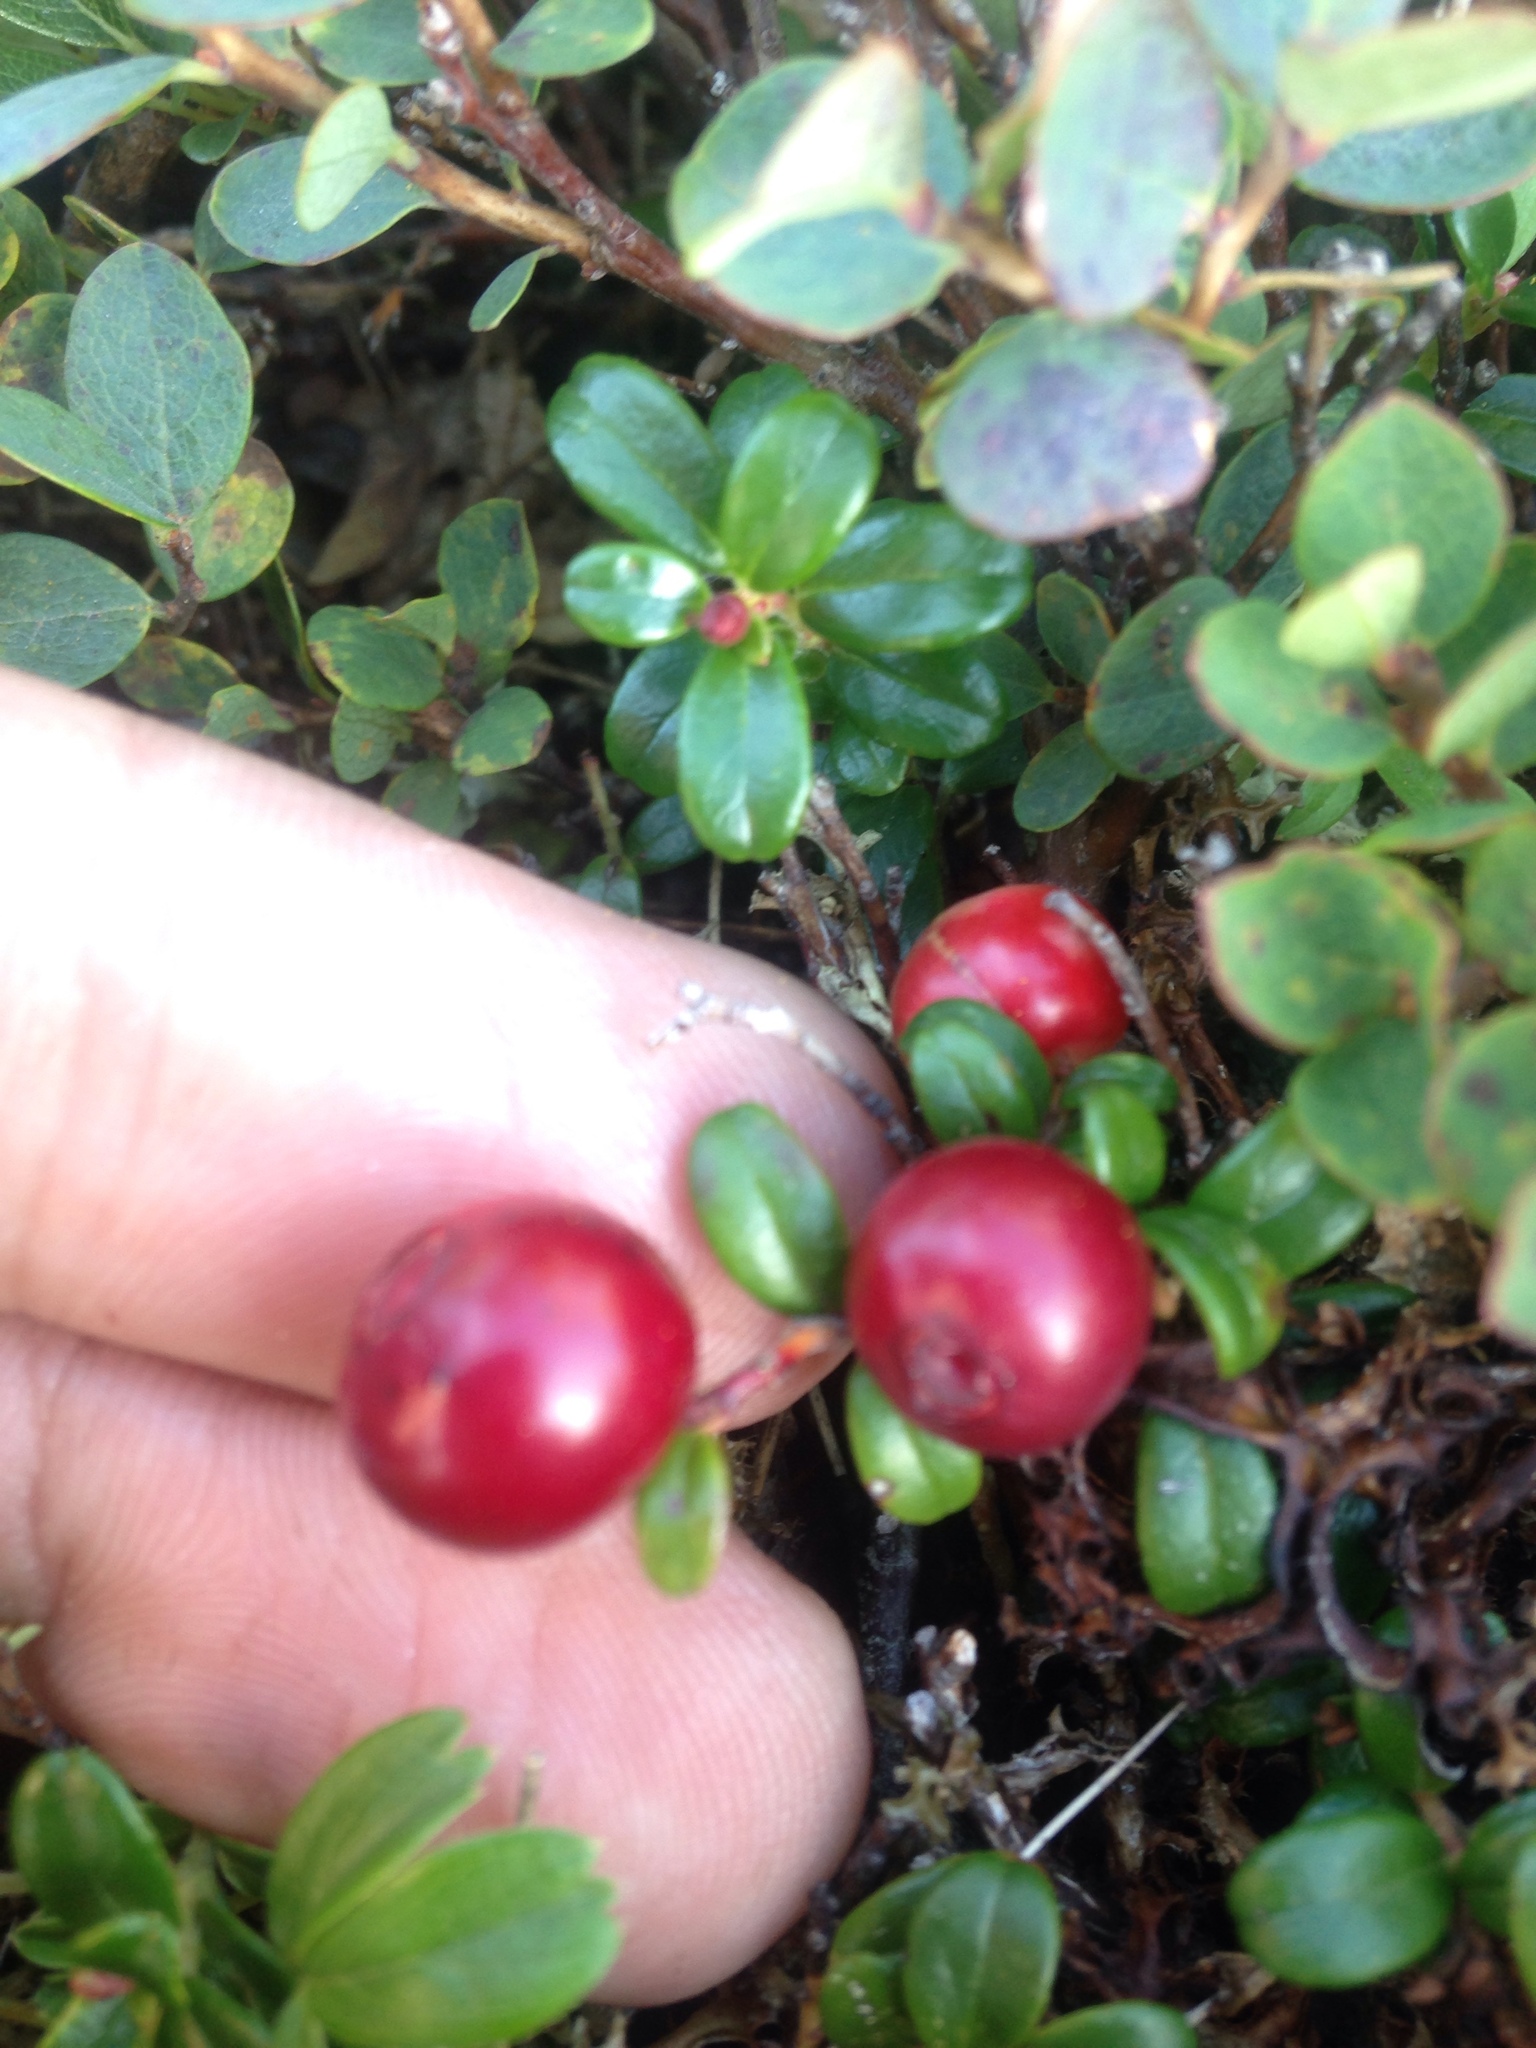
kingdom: Plantae
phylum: Tracheophyta
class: Magnoliopsida
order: Ericales
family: Ericaceae
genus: Vaccinium
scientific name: Vaccinium vitis-idaea
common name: Cowberry
